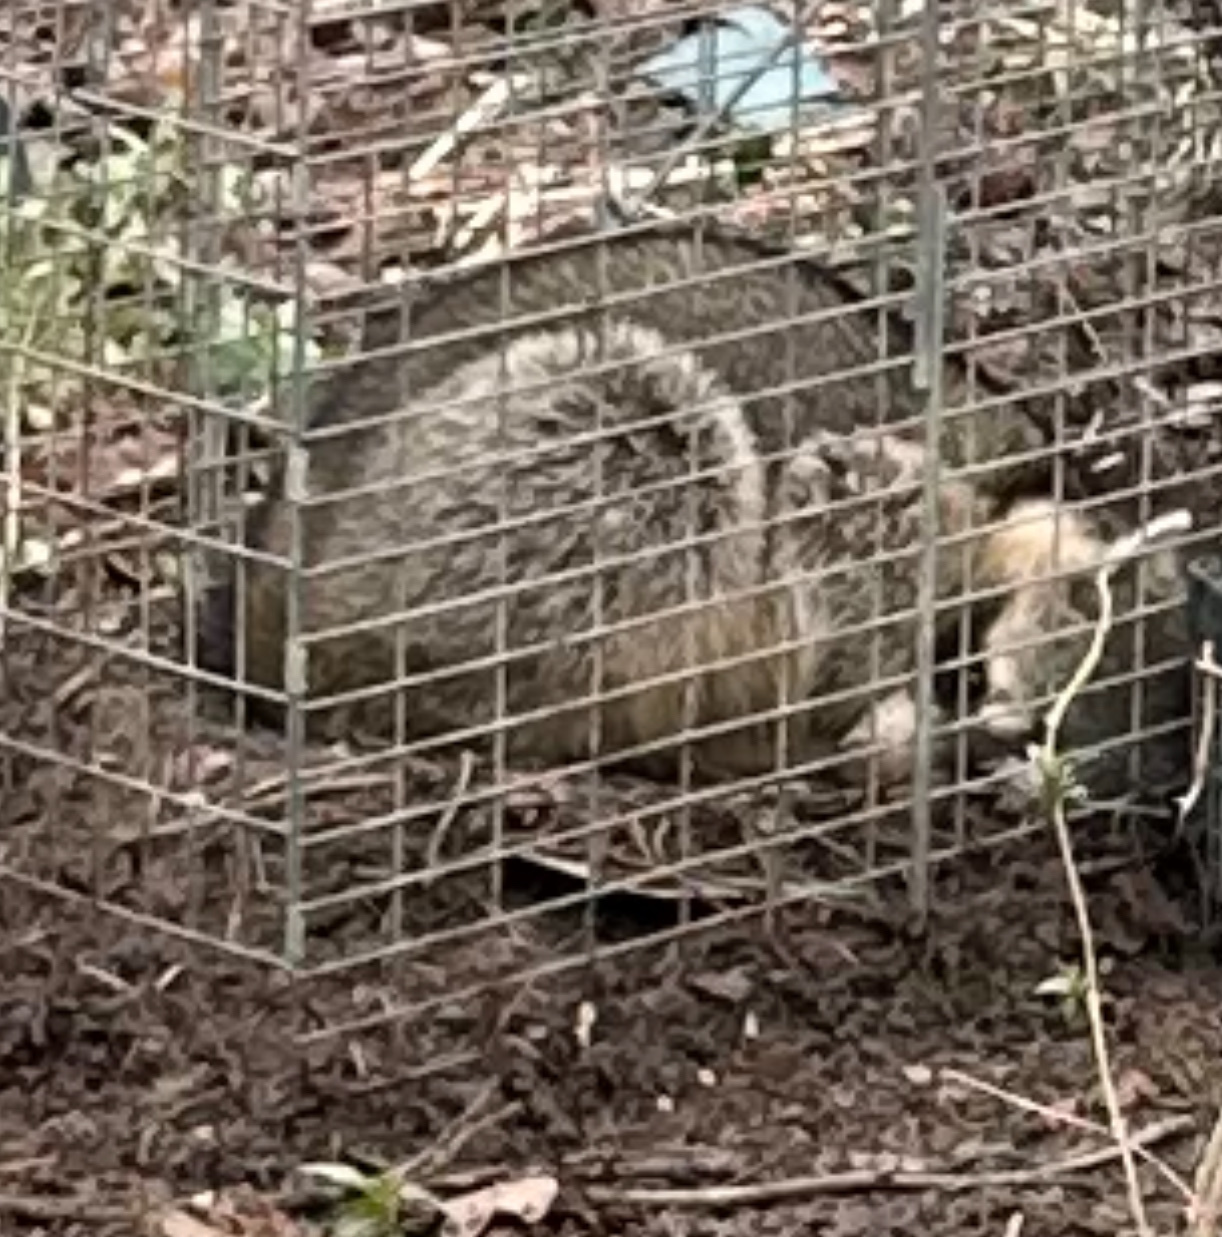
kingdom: Animalia
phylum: Chordata
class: Mammalia
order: Carnivora
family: Procyonidae
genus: Procyon
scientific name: Procyon lotor
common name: Raccoon
